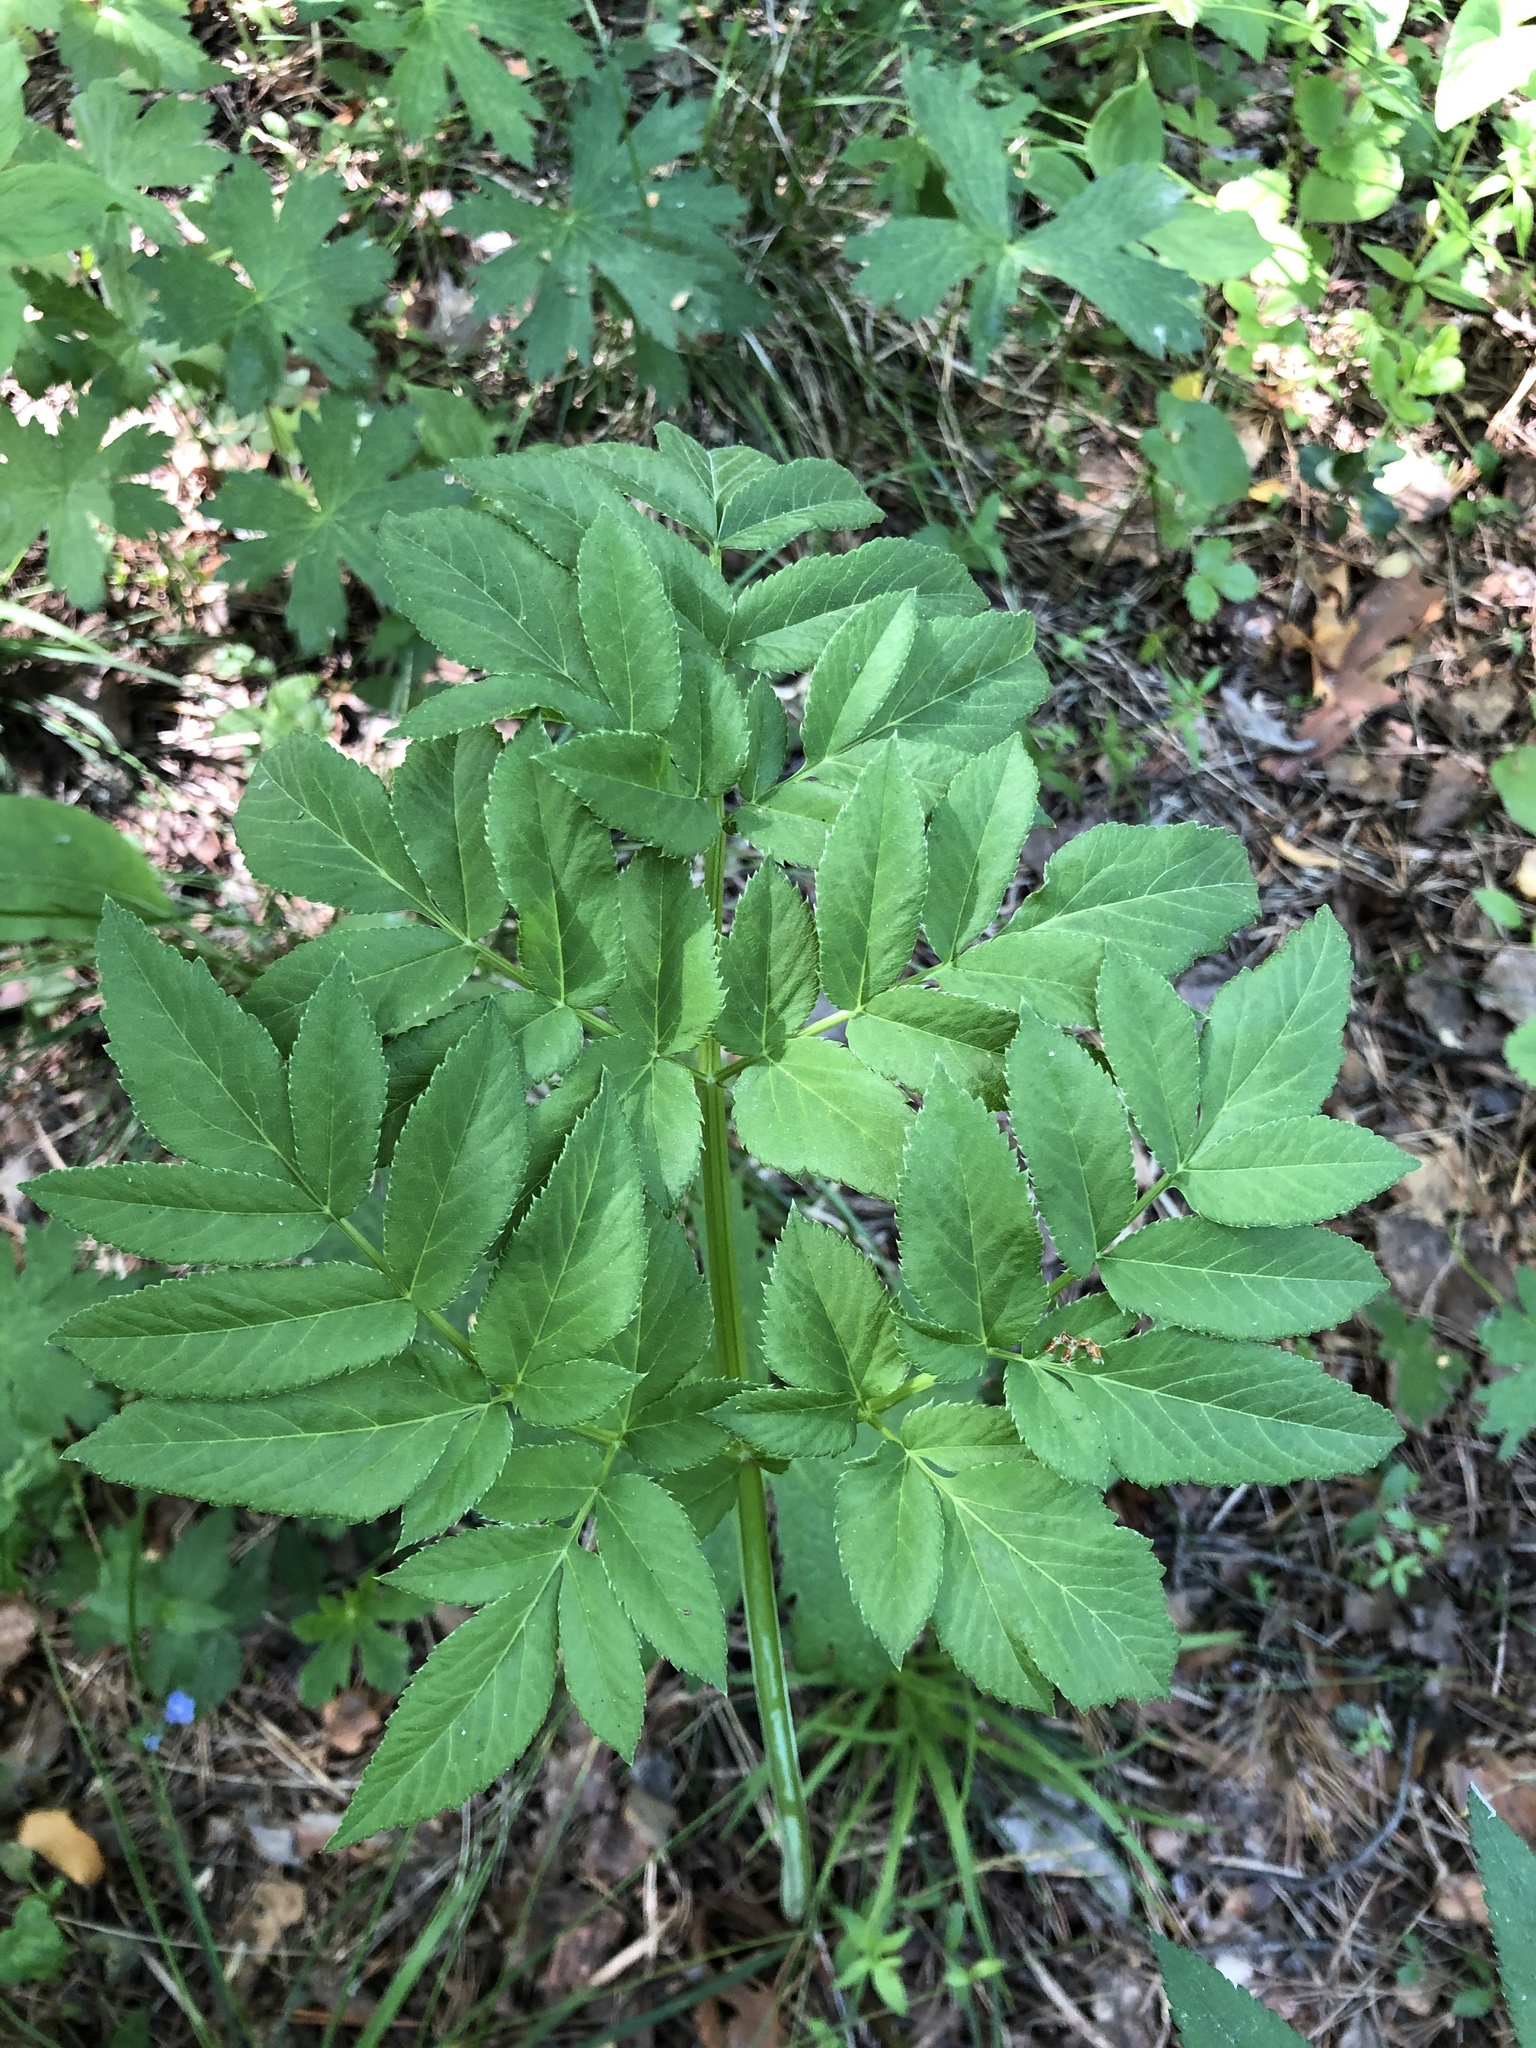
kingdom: Plantae
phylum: Tracheophyta
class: Magnoliopsida
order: Apiales
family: Apiaceae
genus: Angelica
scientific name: Angelica sylvestris
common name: Wild angelica
